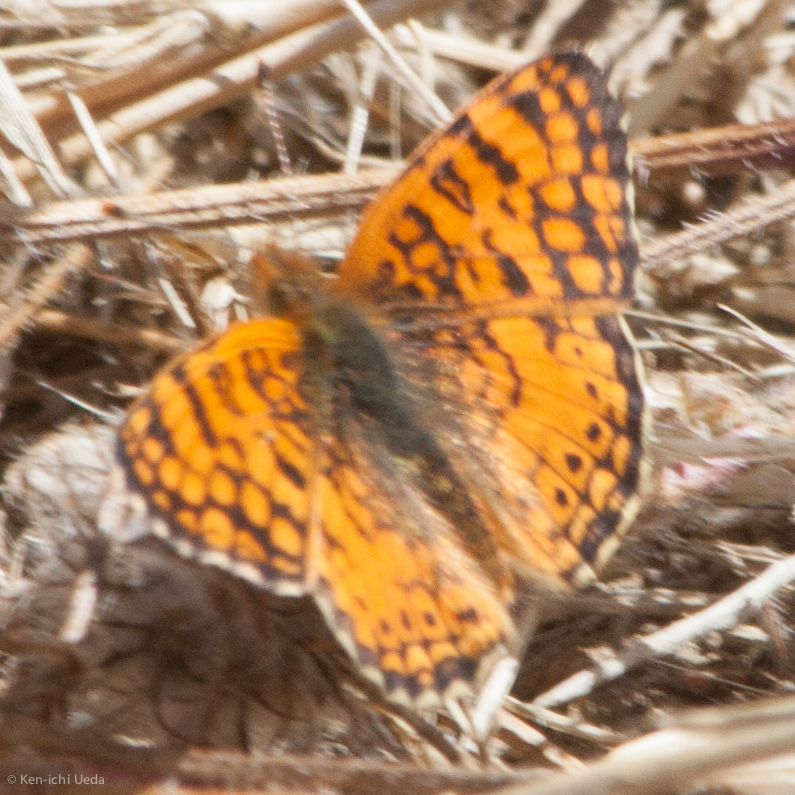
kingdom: Animalia
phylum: Arthropoda
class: Insecta
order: Lepidoptera
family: Nymphalidae
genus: Eresia
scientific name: Eresia aveyrona
